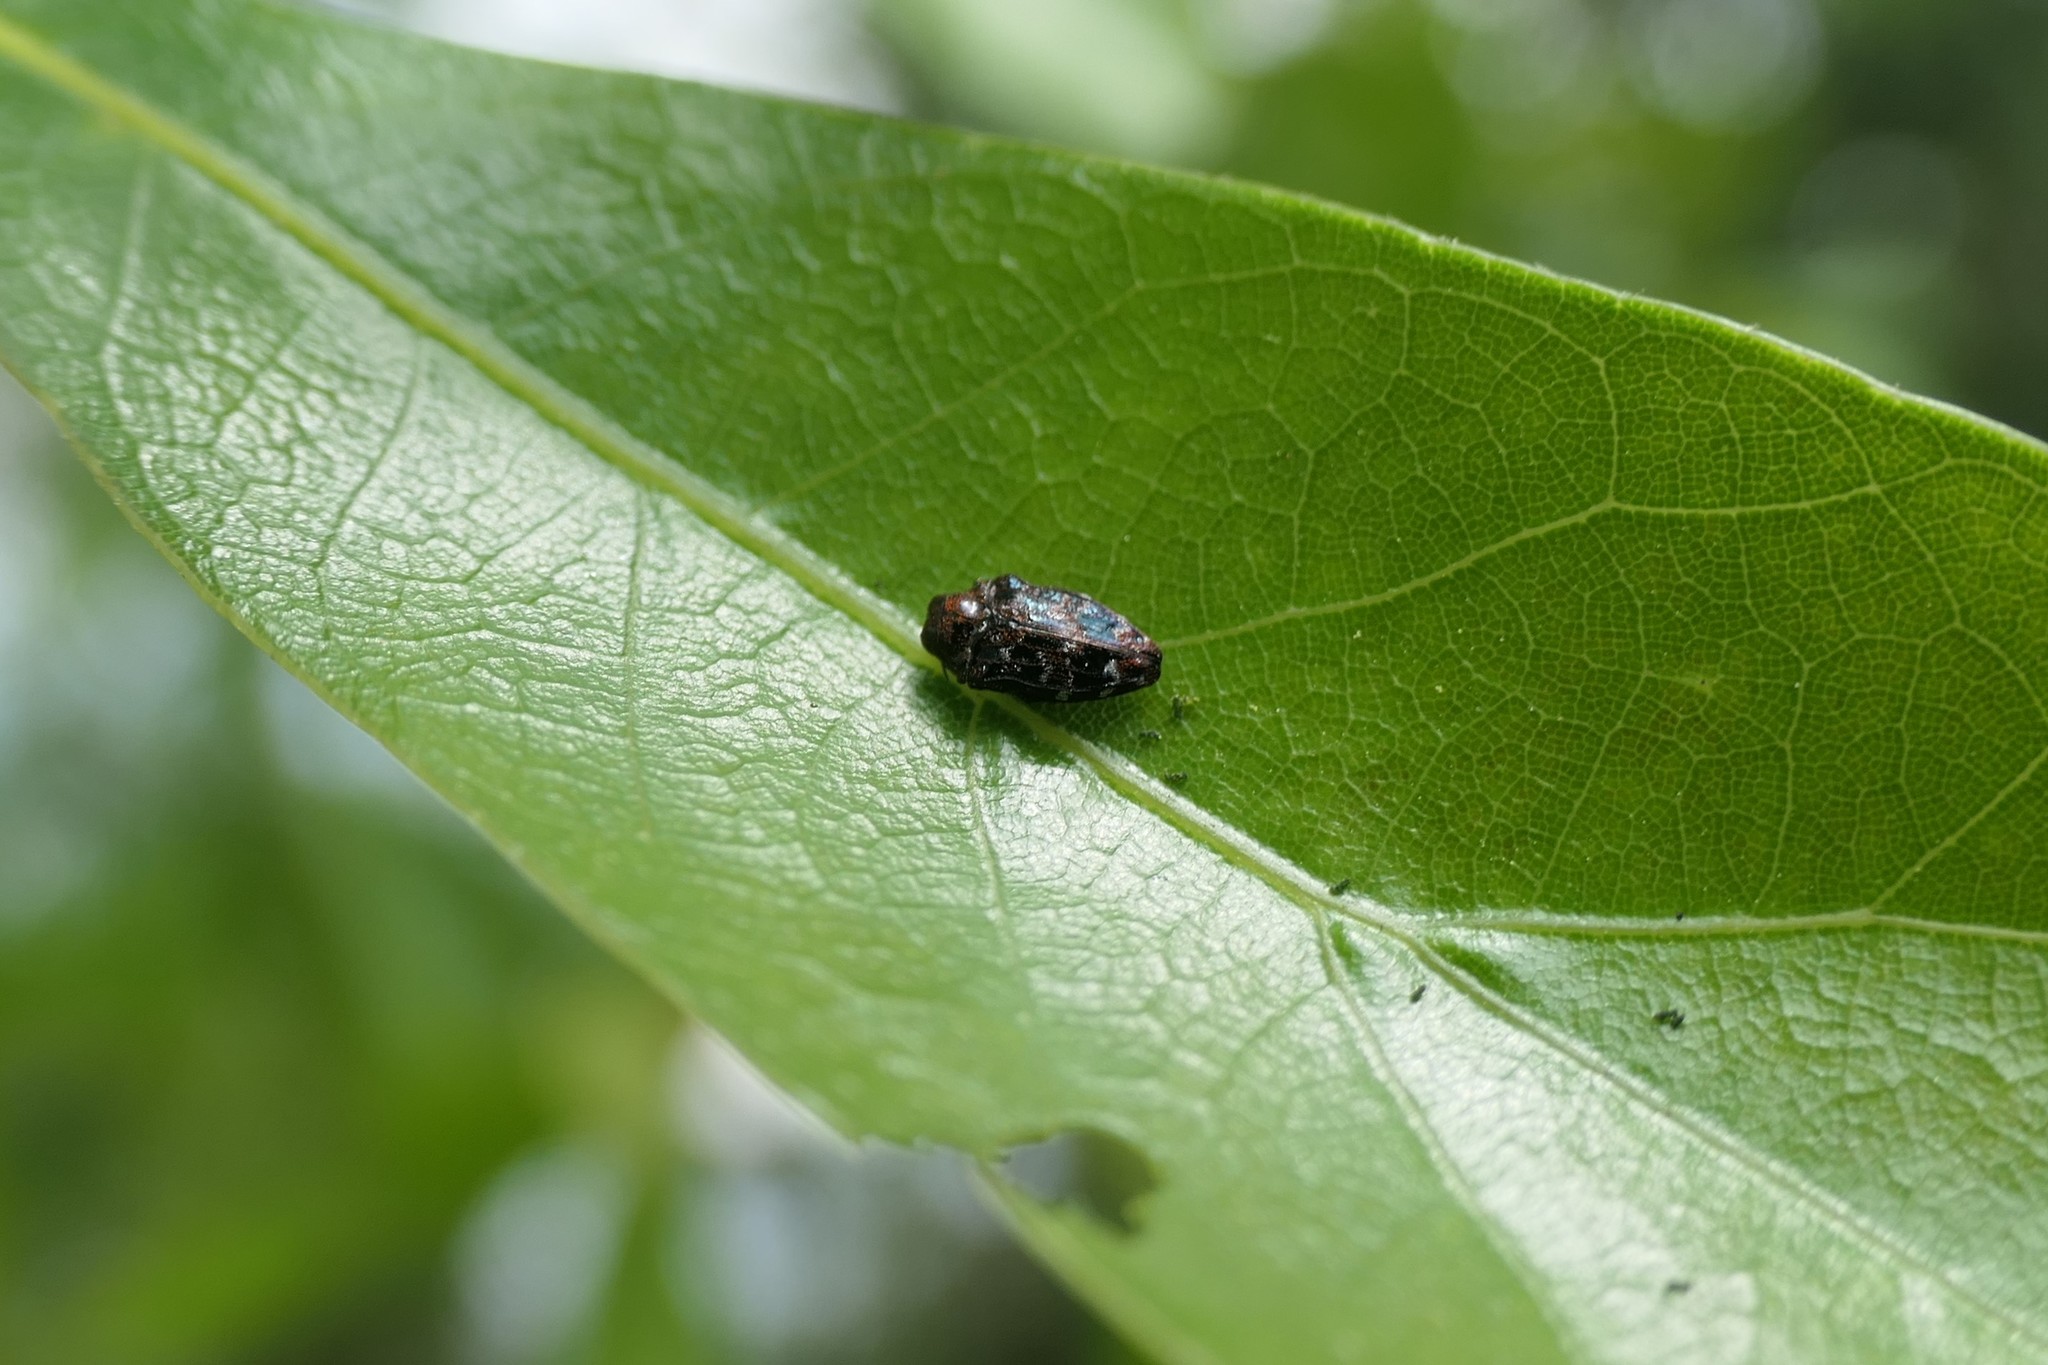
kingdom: Animalia
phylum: Arthropoda
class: Insecta
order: Coleoptera
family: Buprestidae
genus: Brachys
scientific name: Brachys ovatus
